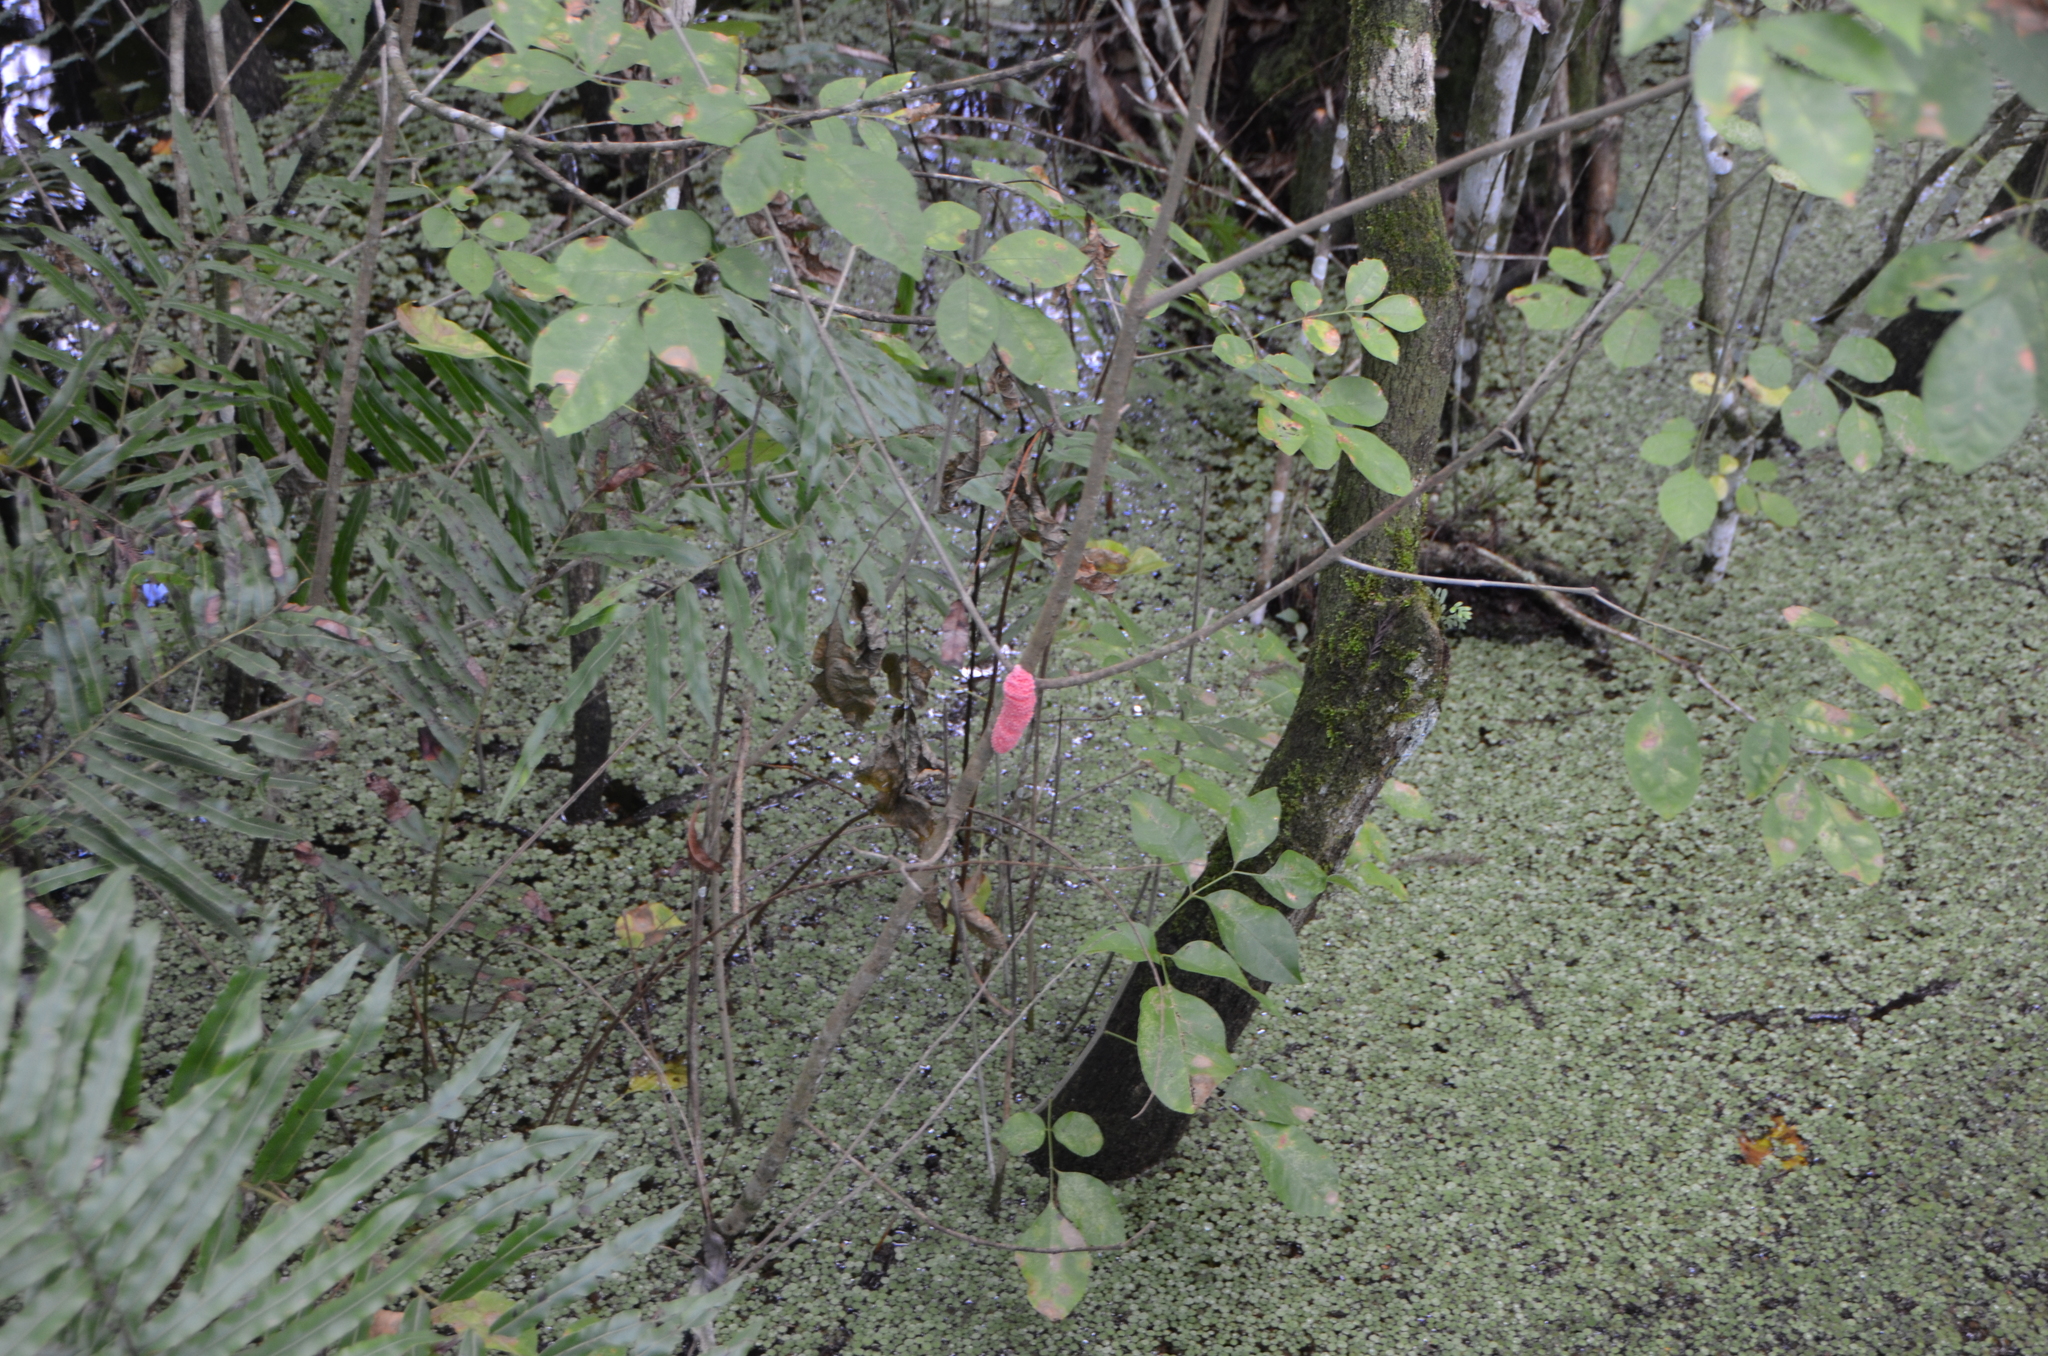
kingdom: Animalia
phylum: Mollusca
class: Gastropoda
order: Architaenioglossa
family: Ampullariidae
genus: Pomacea
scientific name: Pomacea maculata
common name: Giant applesnail
